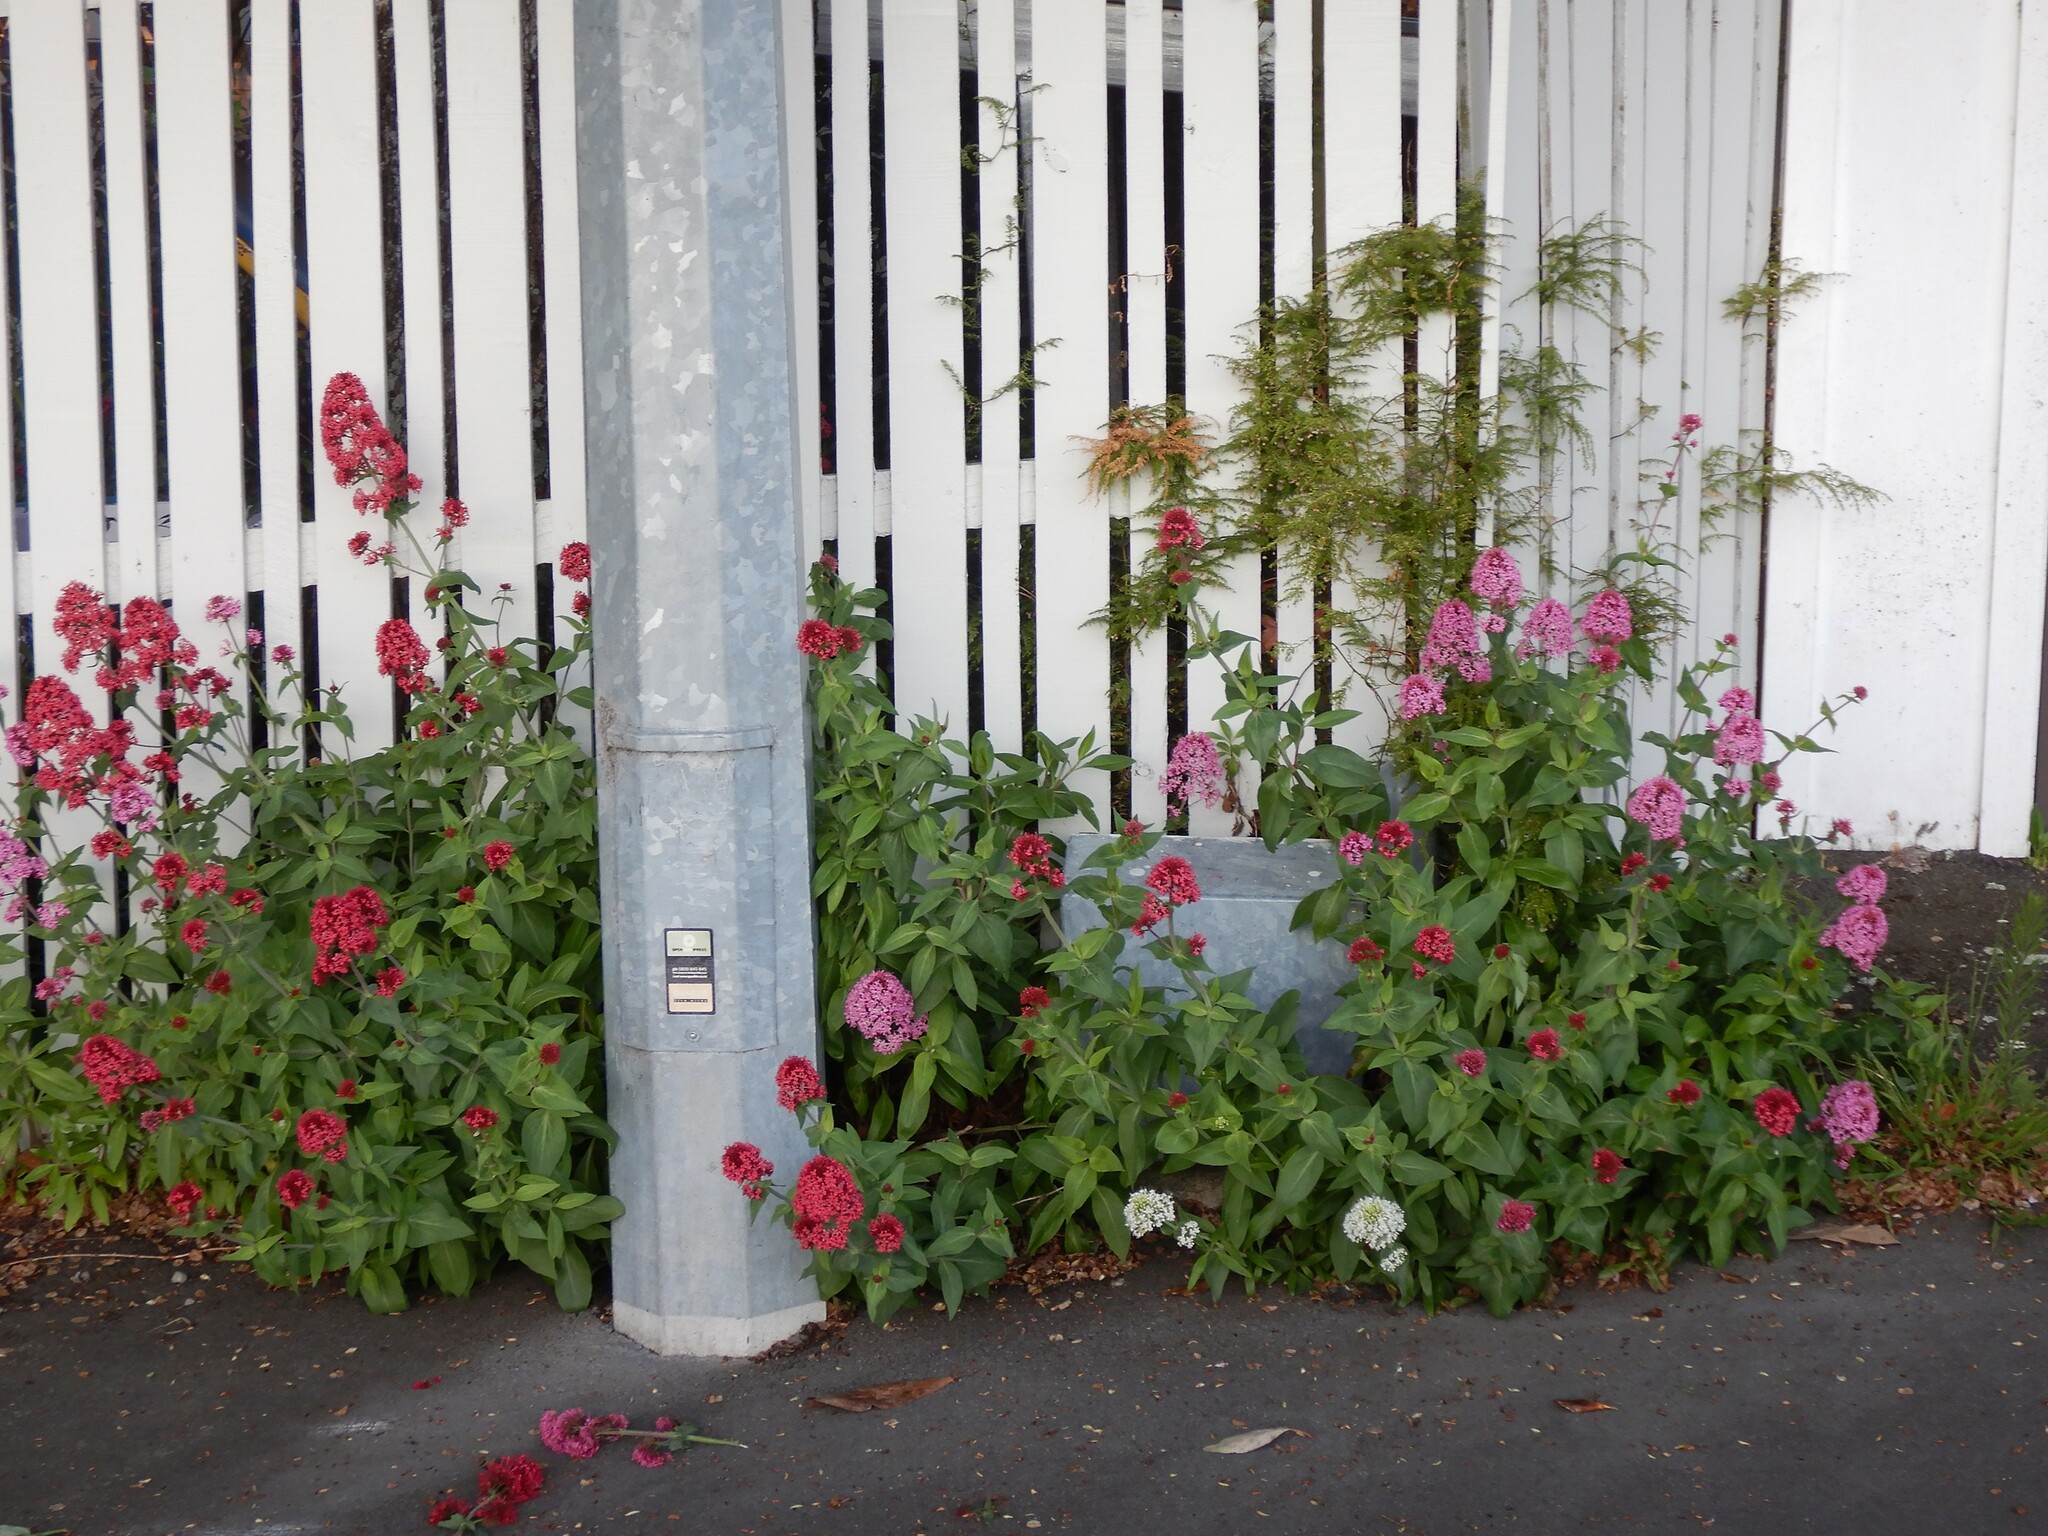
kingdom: Plantae
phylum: Tracheophyta
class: Magnoliopsida
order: Dipsacales
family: Caprifoliaceae
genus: Centranthus
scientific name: Centranthus ruber
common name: Red valerian
